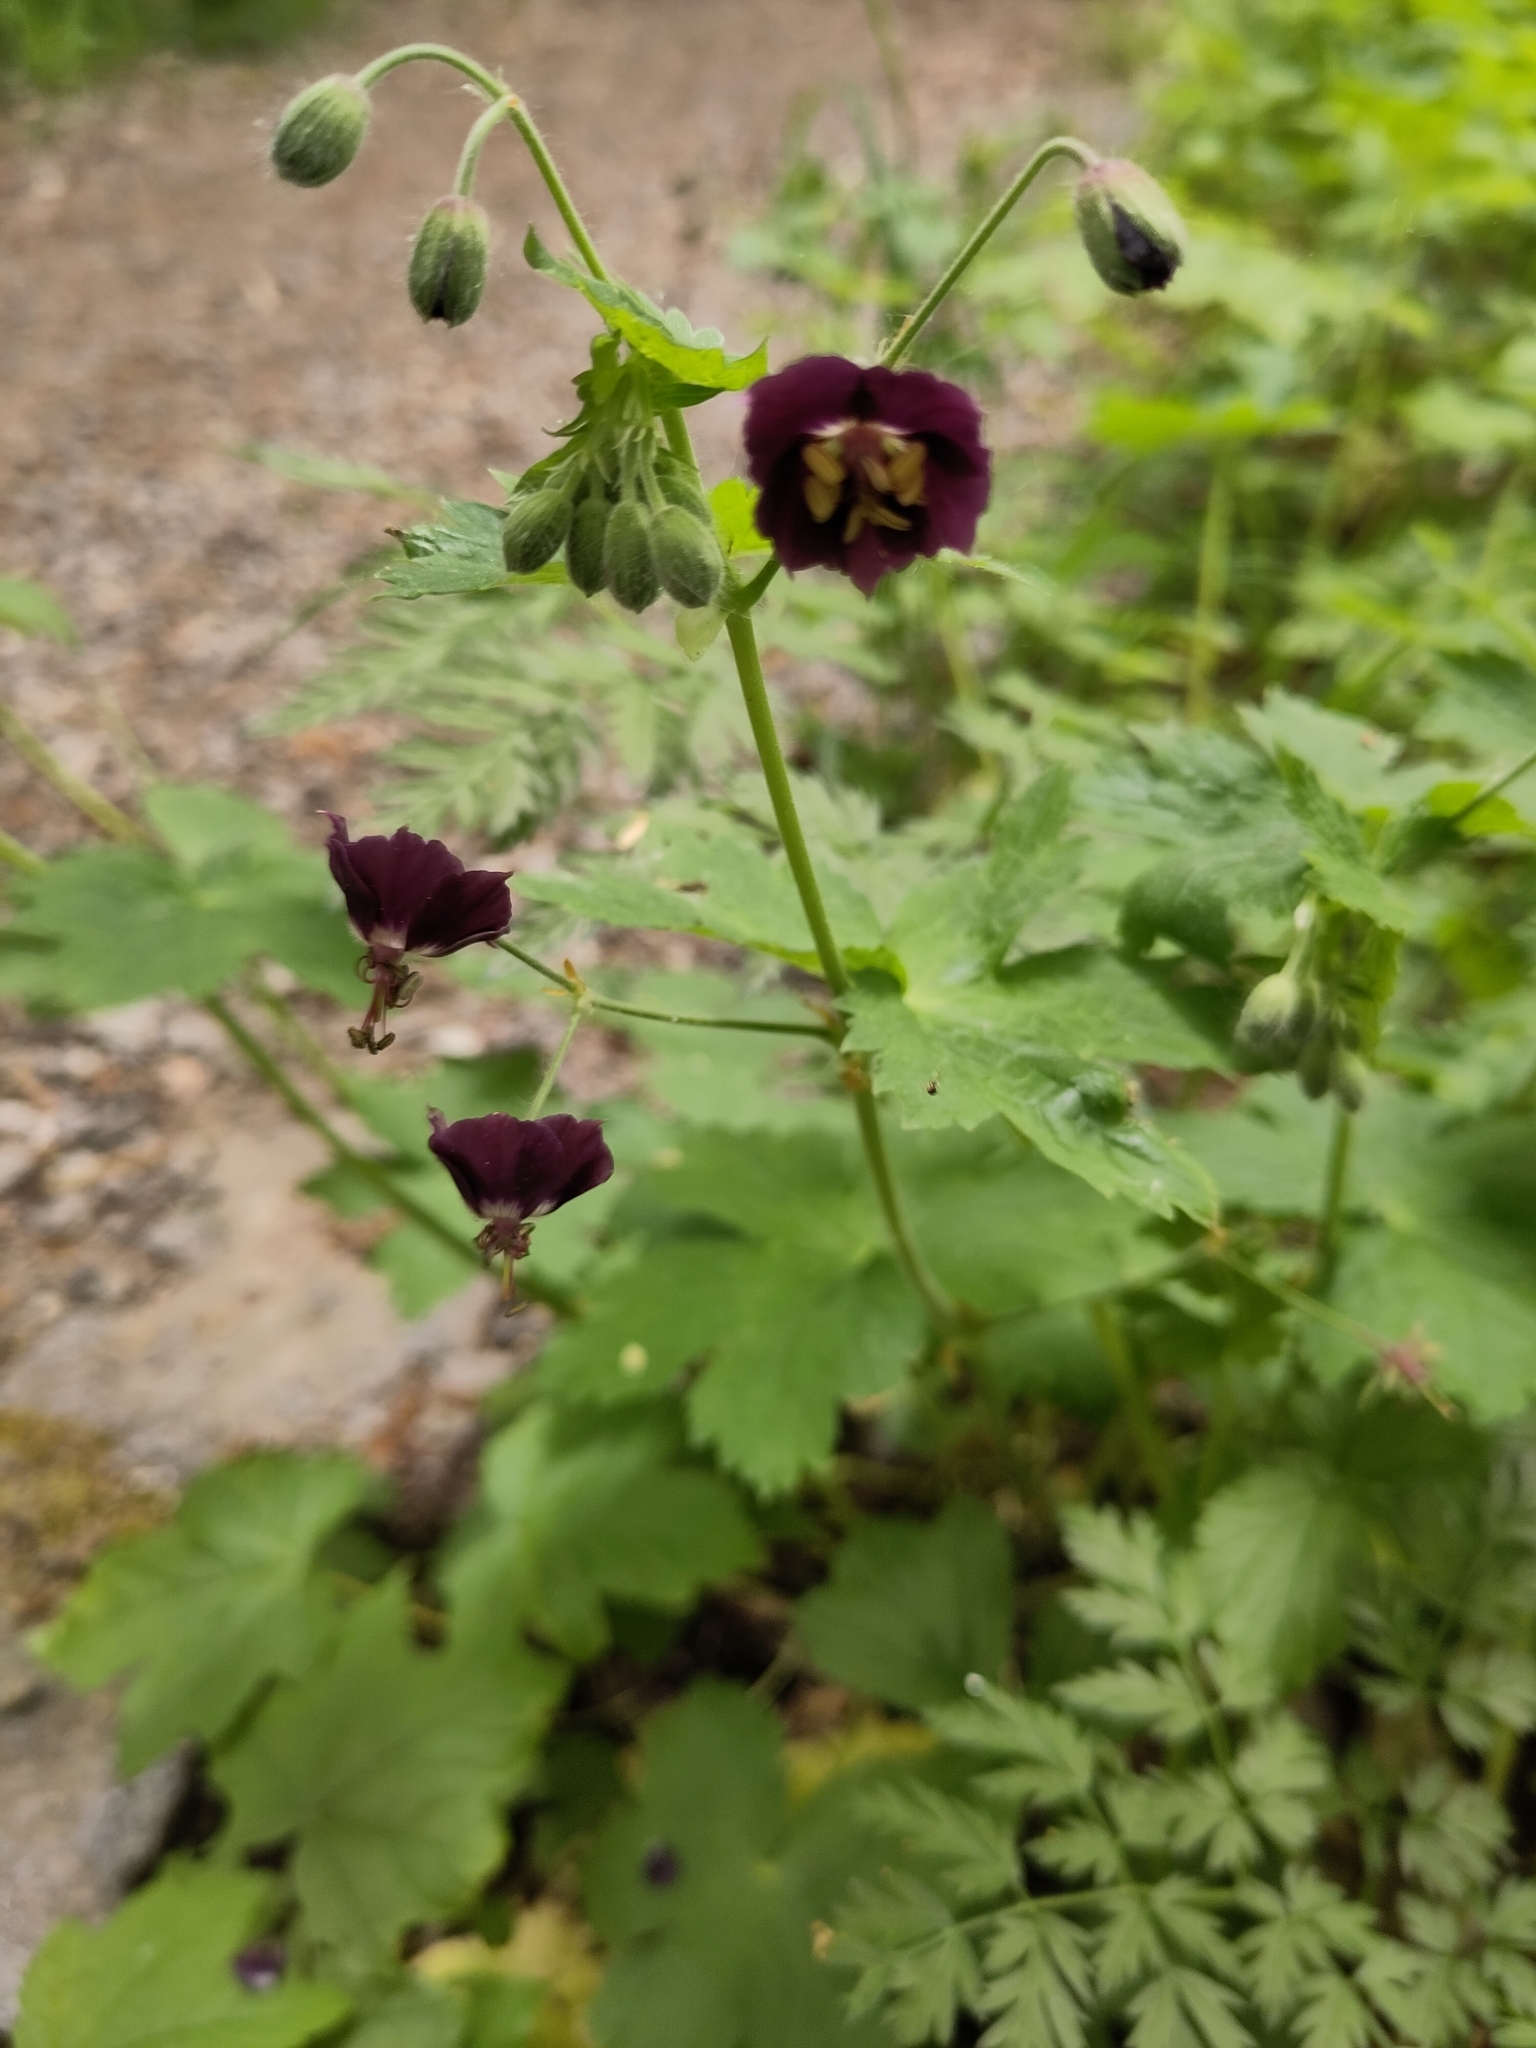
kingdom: Plantae
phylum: Tracheophyta
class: Magnoliopsida
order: Geraniales
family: Geraniaceae
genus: Geranium
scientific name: Geranium phaeum
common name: Dusky crane's-bill
